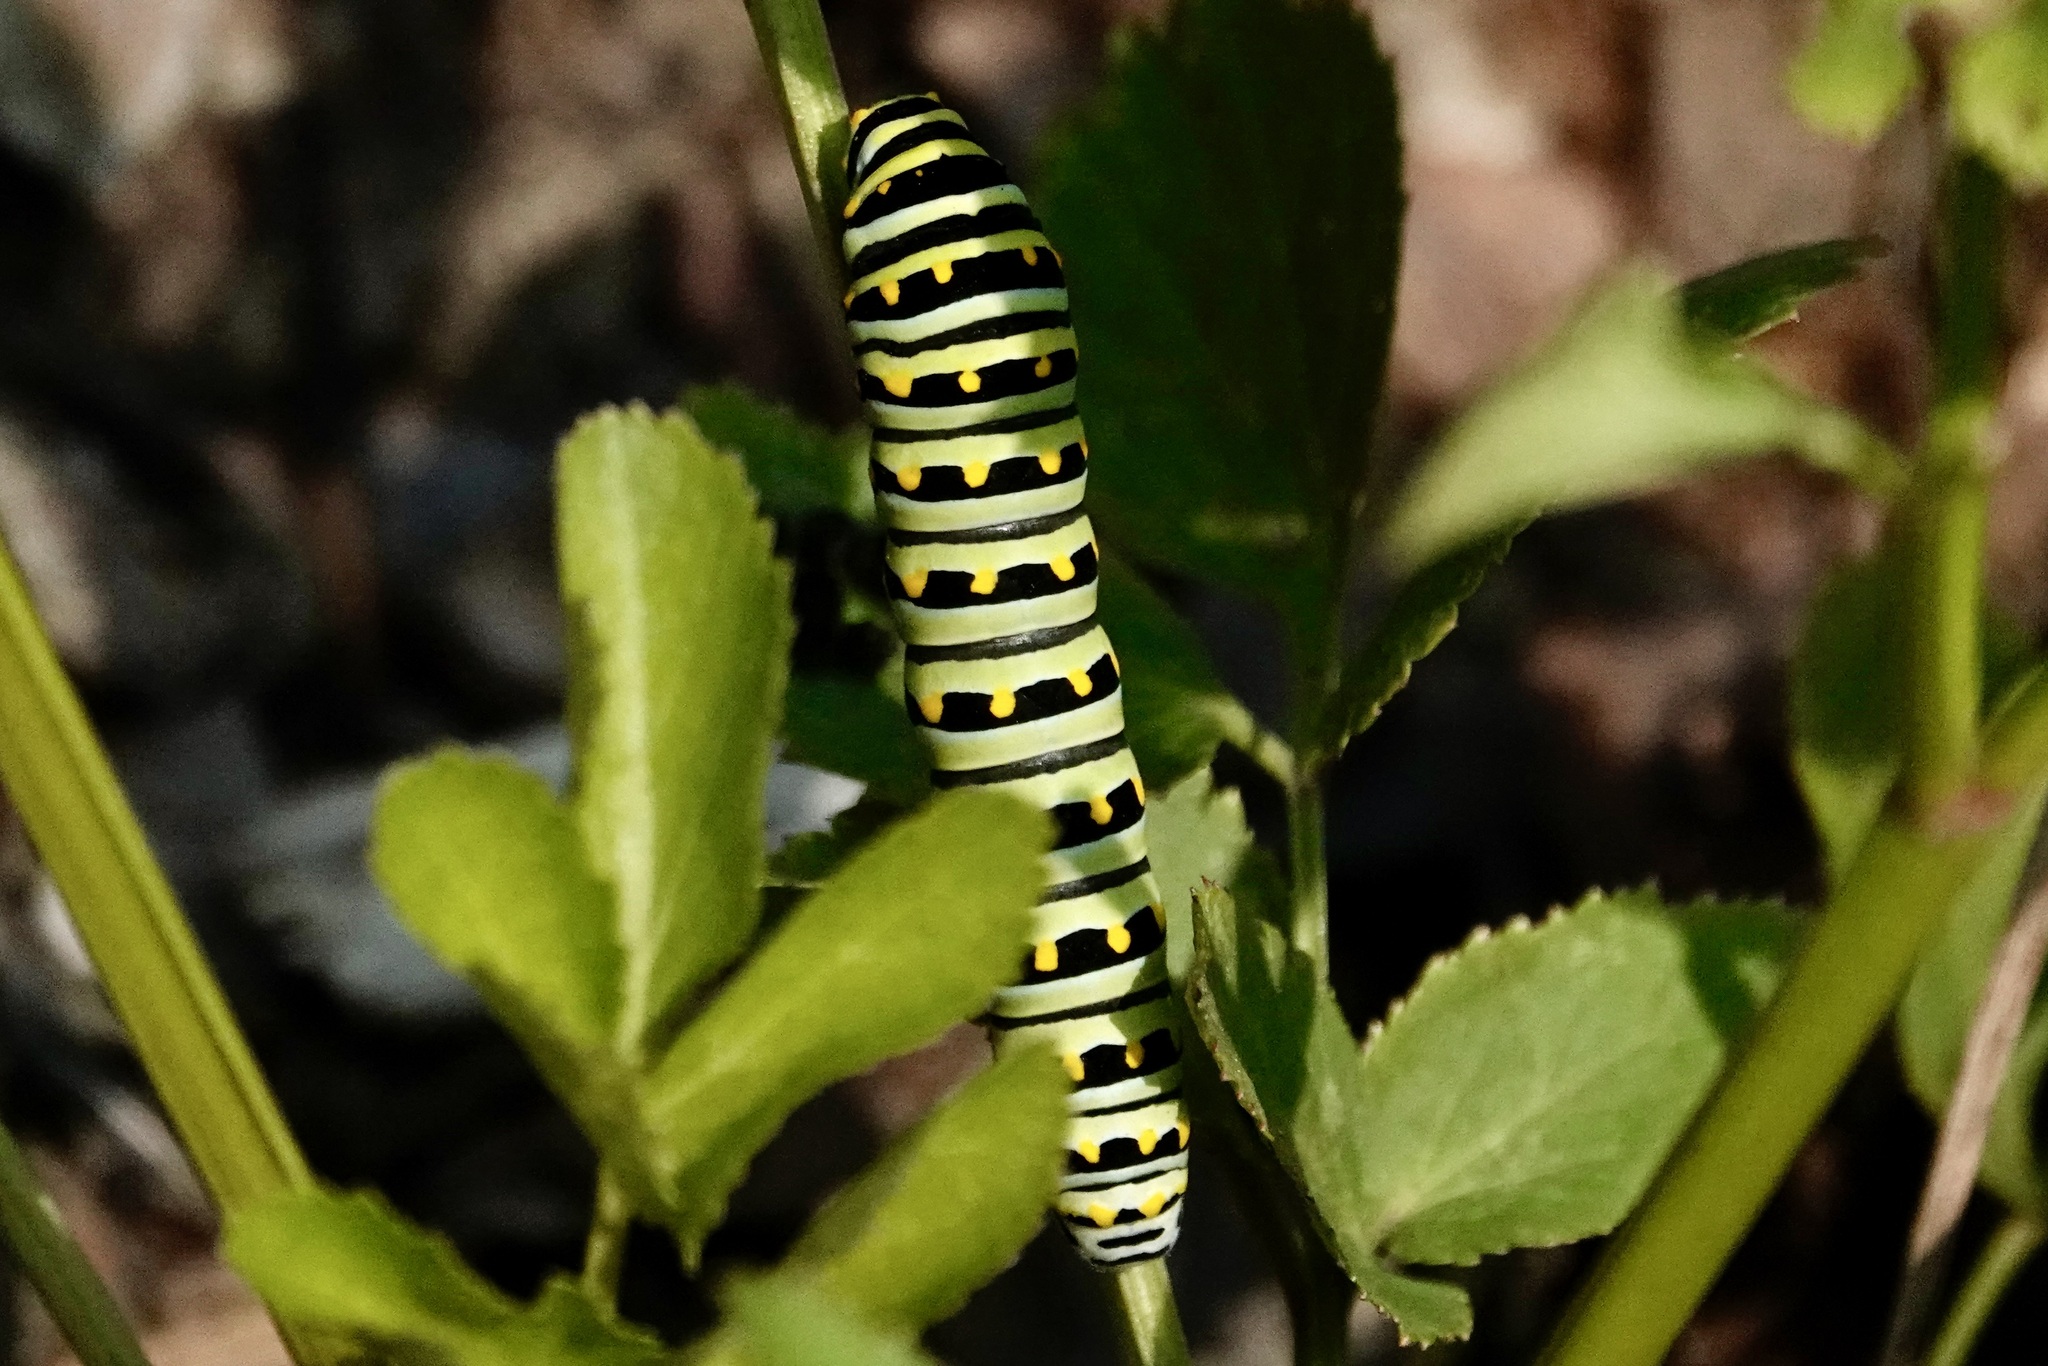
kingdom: Animalia
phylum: Arthropoda
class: Insecta
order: Lepidoptera
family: Papilionidae
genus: Papilio
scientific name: Papilio polyxenes
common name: Black swallowtail
